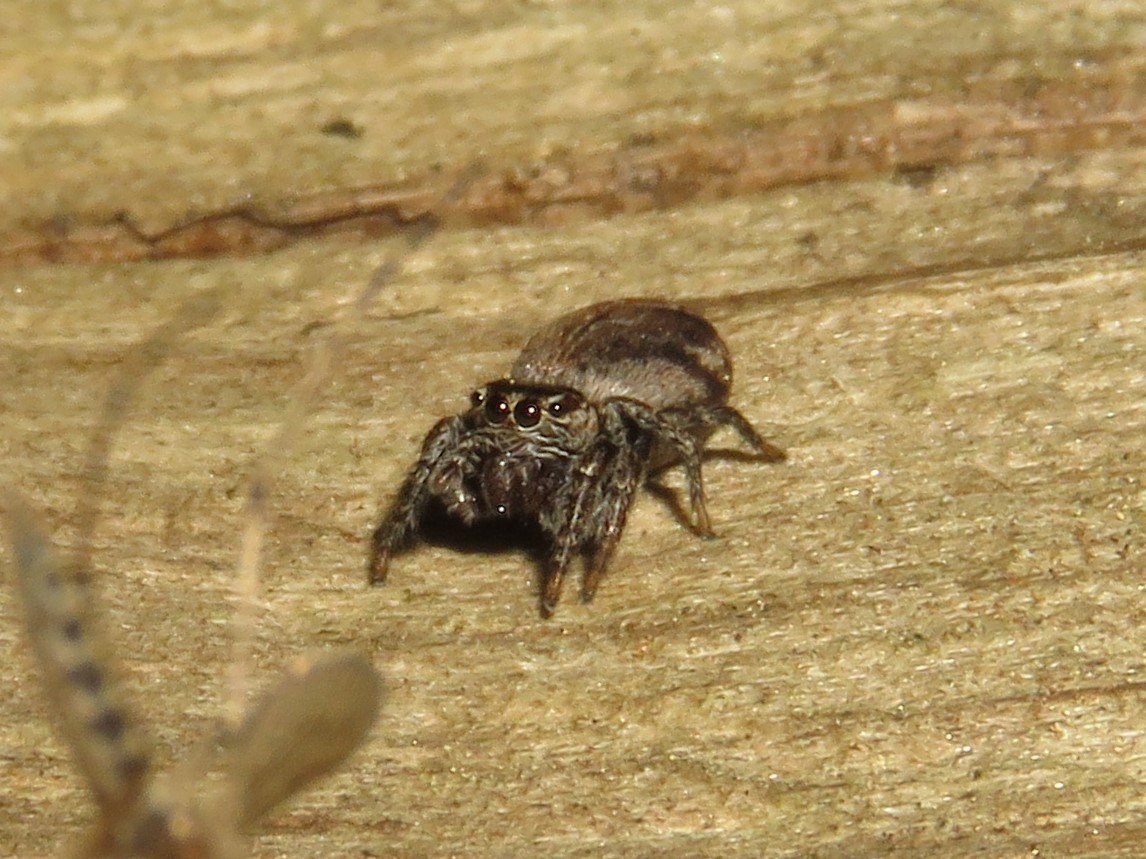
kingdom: Animalia
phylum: Arthropoda
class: Arachnida
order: Araneae
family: Salticidae
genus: Evarcha
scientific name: Evarcha hoyi
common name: Hoy's jumping spider
